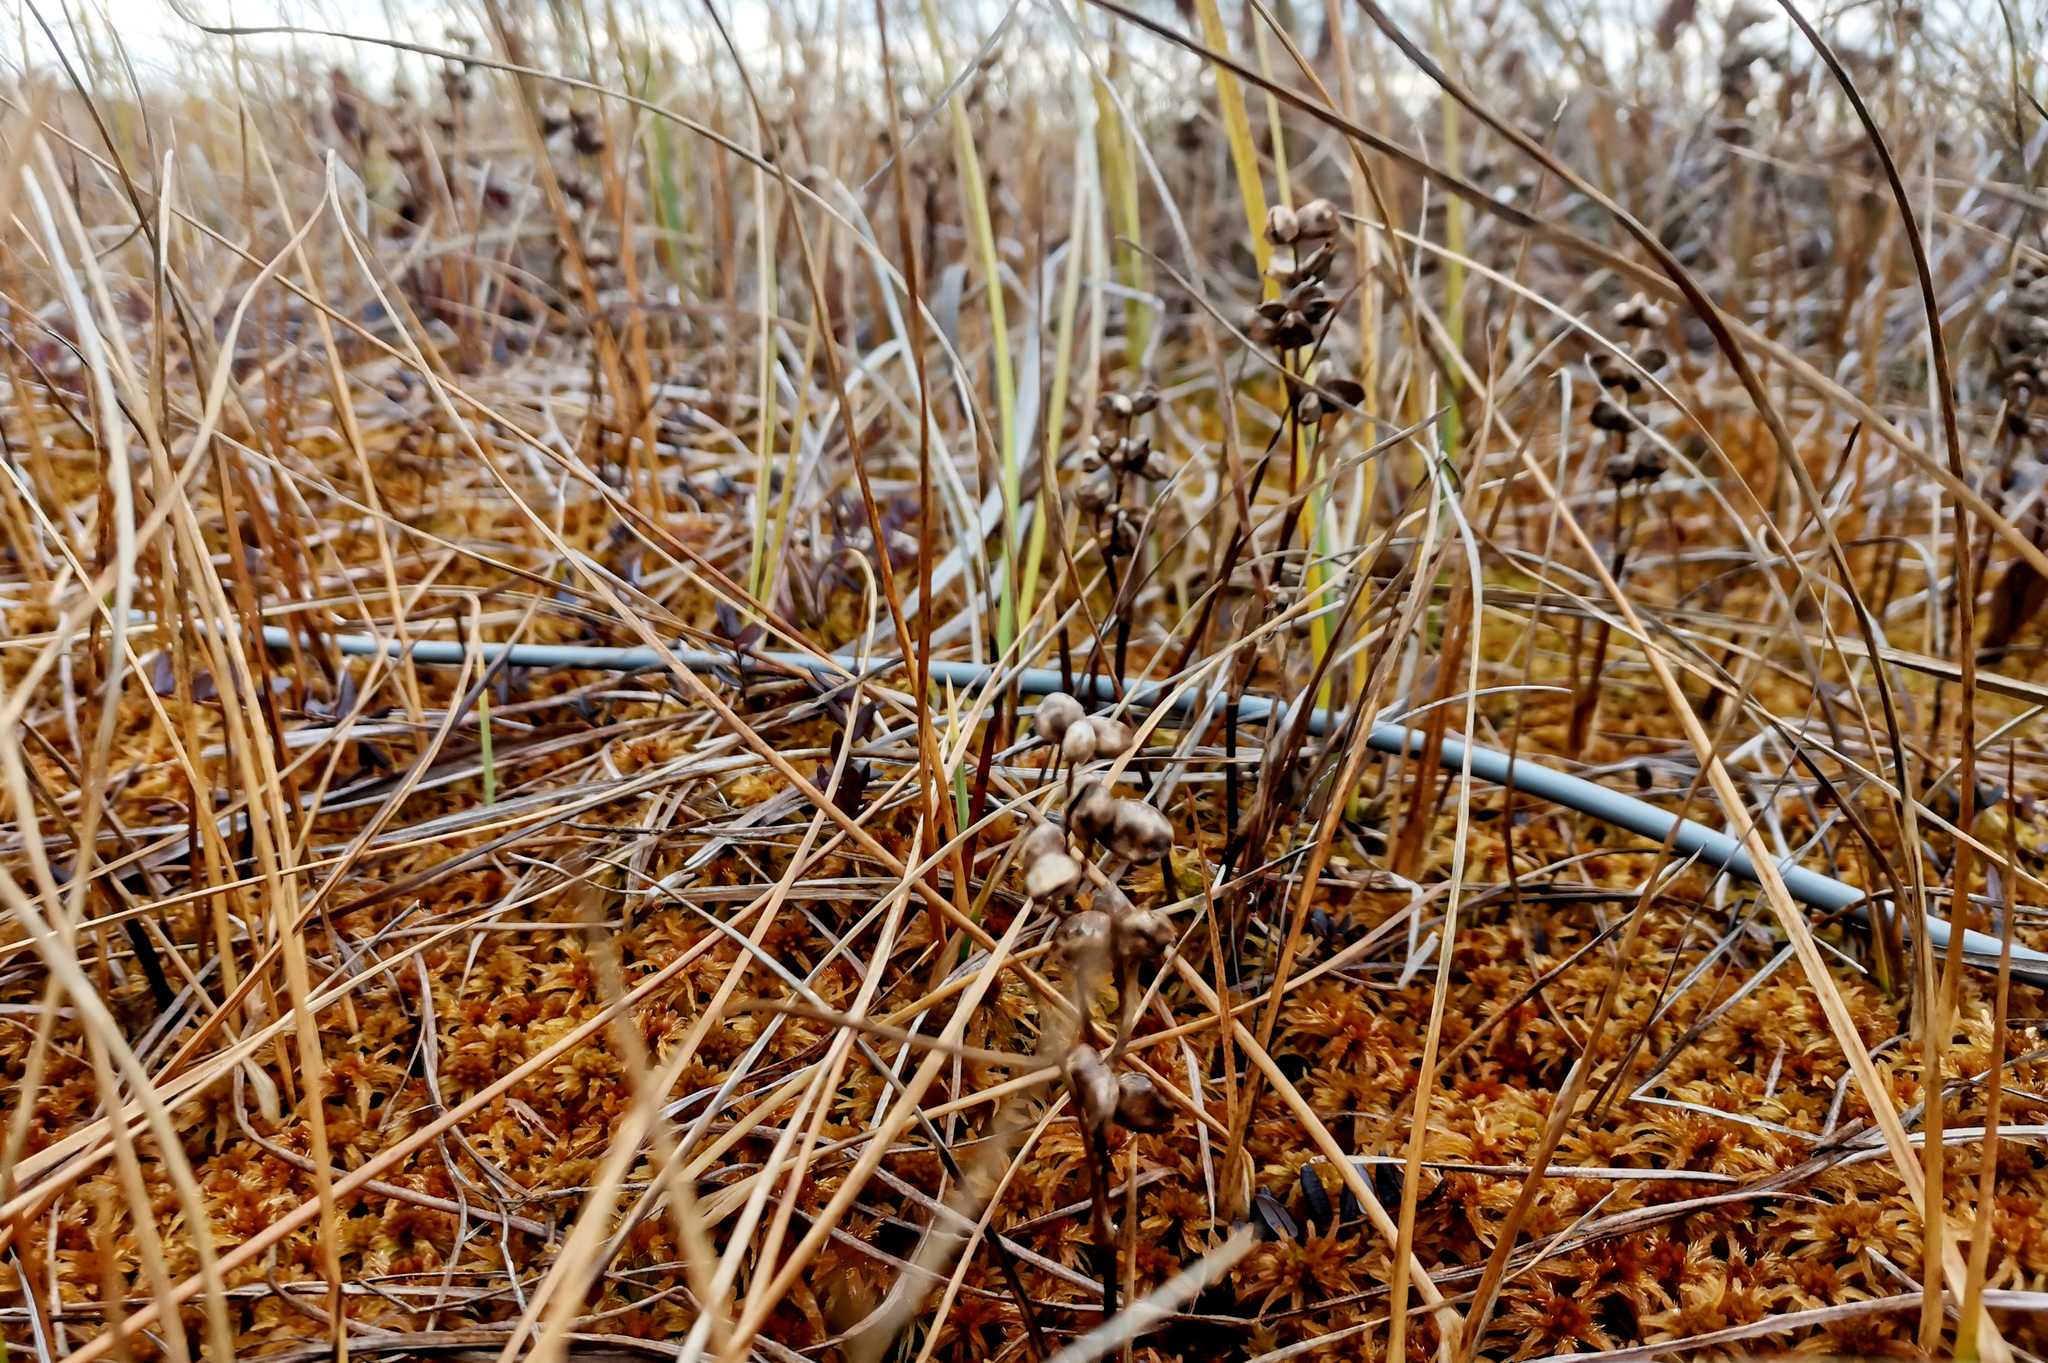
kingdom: Plantae
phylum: Tracheophyta
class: Liliopsida
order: Alismatales
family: Scheuchzeriaceae
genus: Scheuchzeria
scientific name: Scheuchzeria palustris
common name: Rannoch-rush
